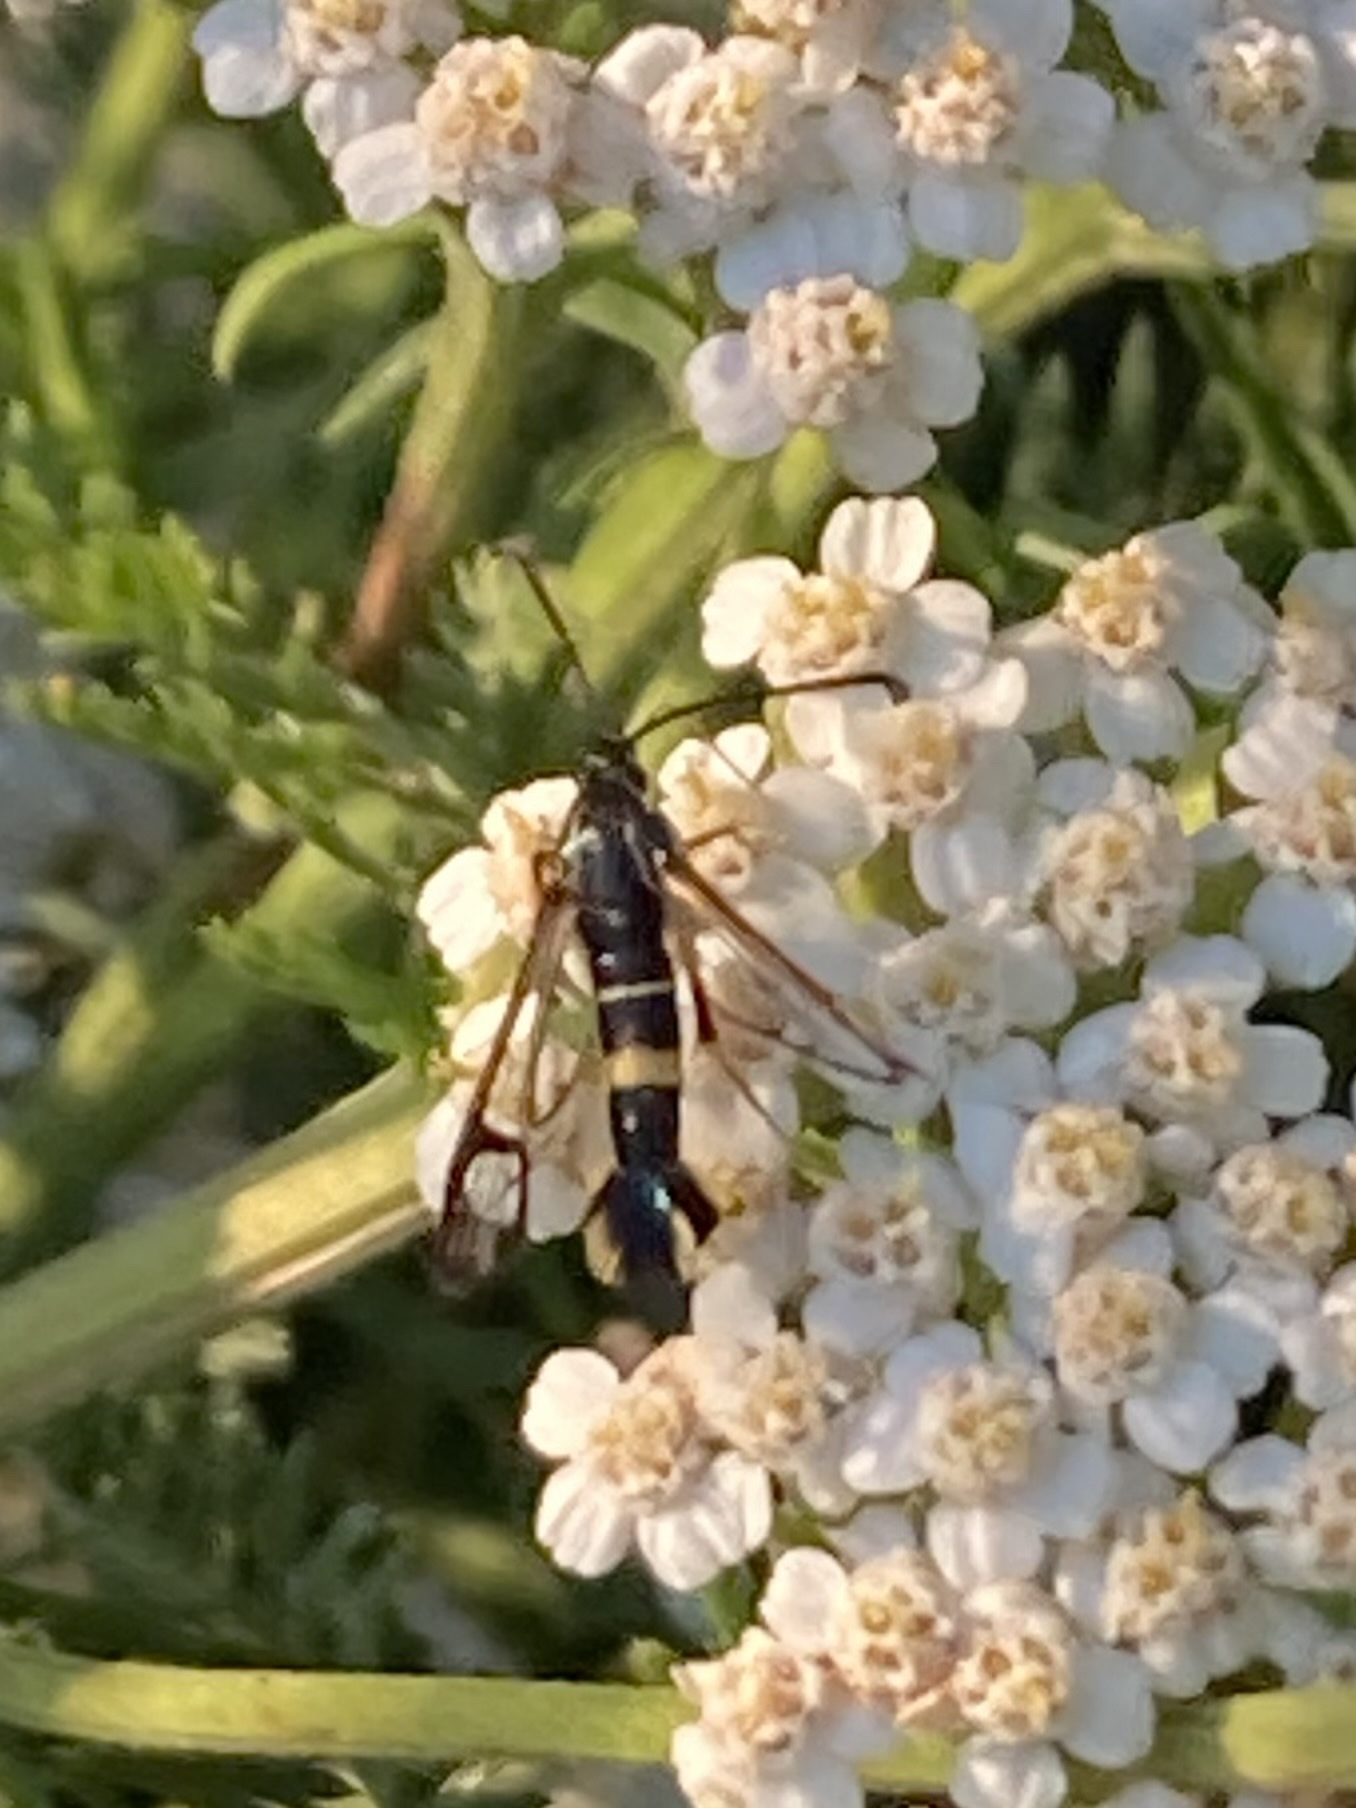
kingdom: Animalia
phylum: Arthropoda
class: Insecta
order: Lepidoptera
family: Sesiidae
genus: Synanthedon
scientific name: Synanthedon scitula
